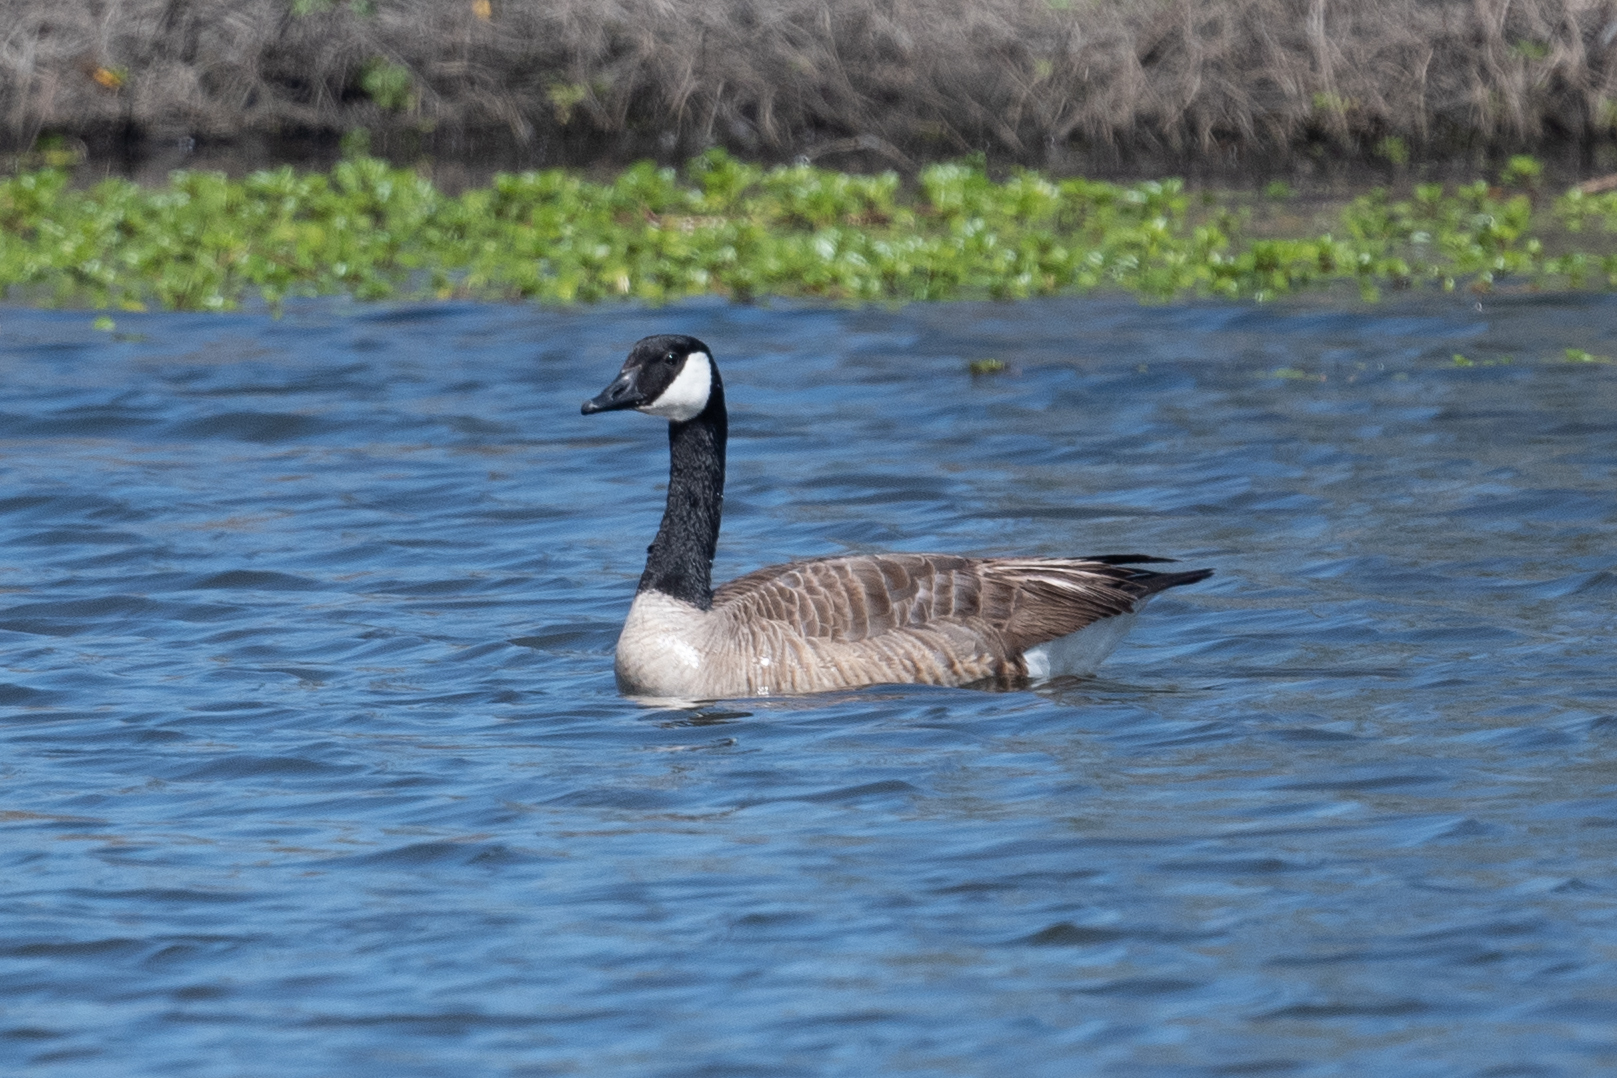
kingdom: Animalia
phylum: Chordata
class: Aves
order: Anseriformes
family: Anatidae
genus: Branta
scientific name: Branta canadensis
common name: Canada goose
